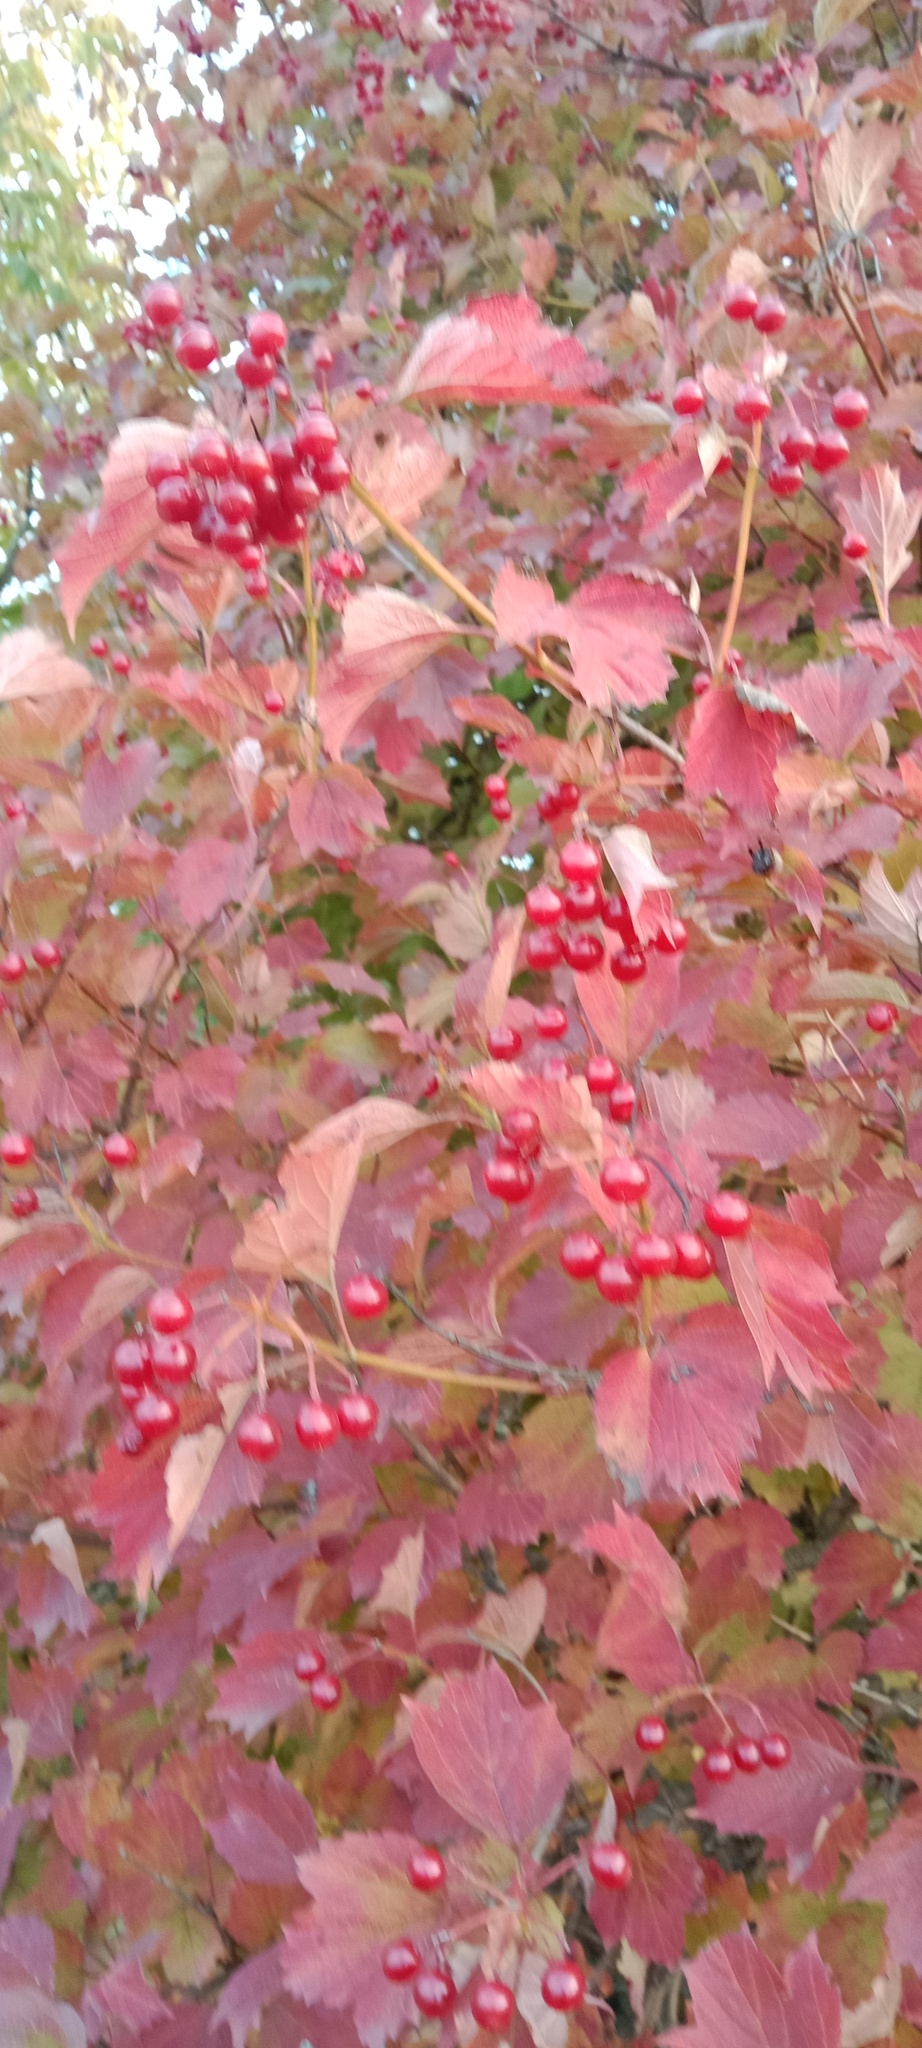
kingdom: Plantae
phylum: Tracheophyta
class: Magnoliopsida
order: Dipsacales
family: Viburnaceae
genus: Viburnum
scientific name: Viburnum opulus
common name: Guelder-rose
